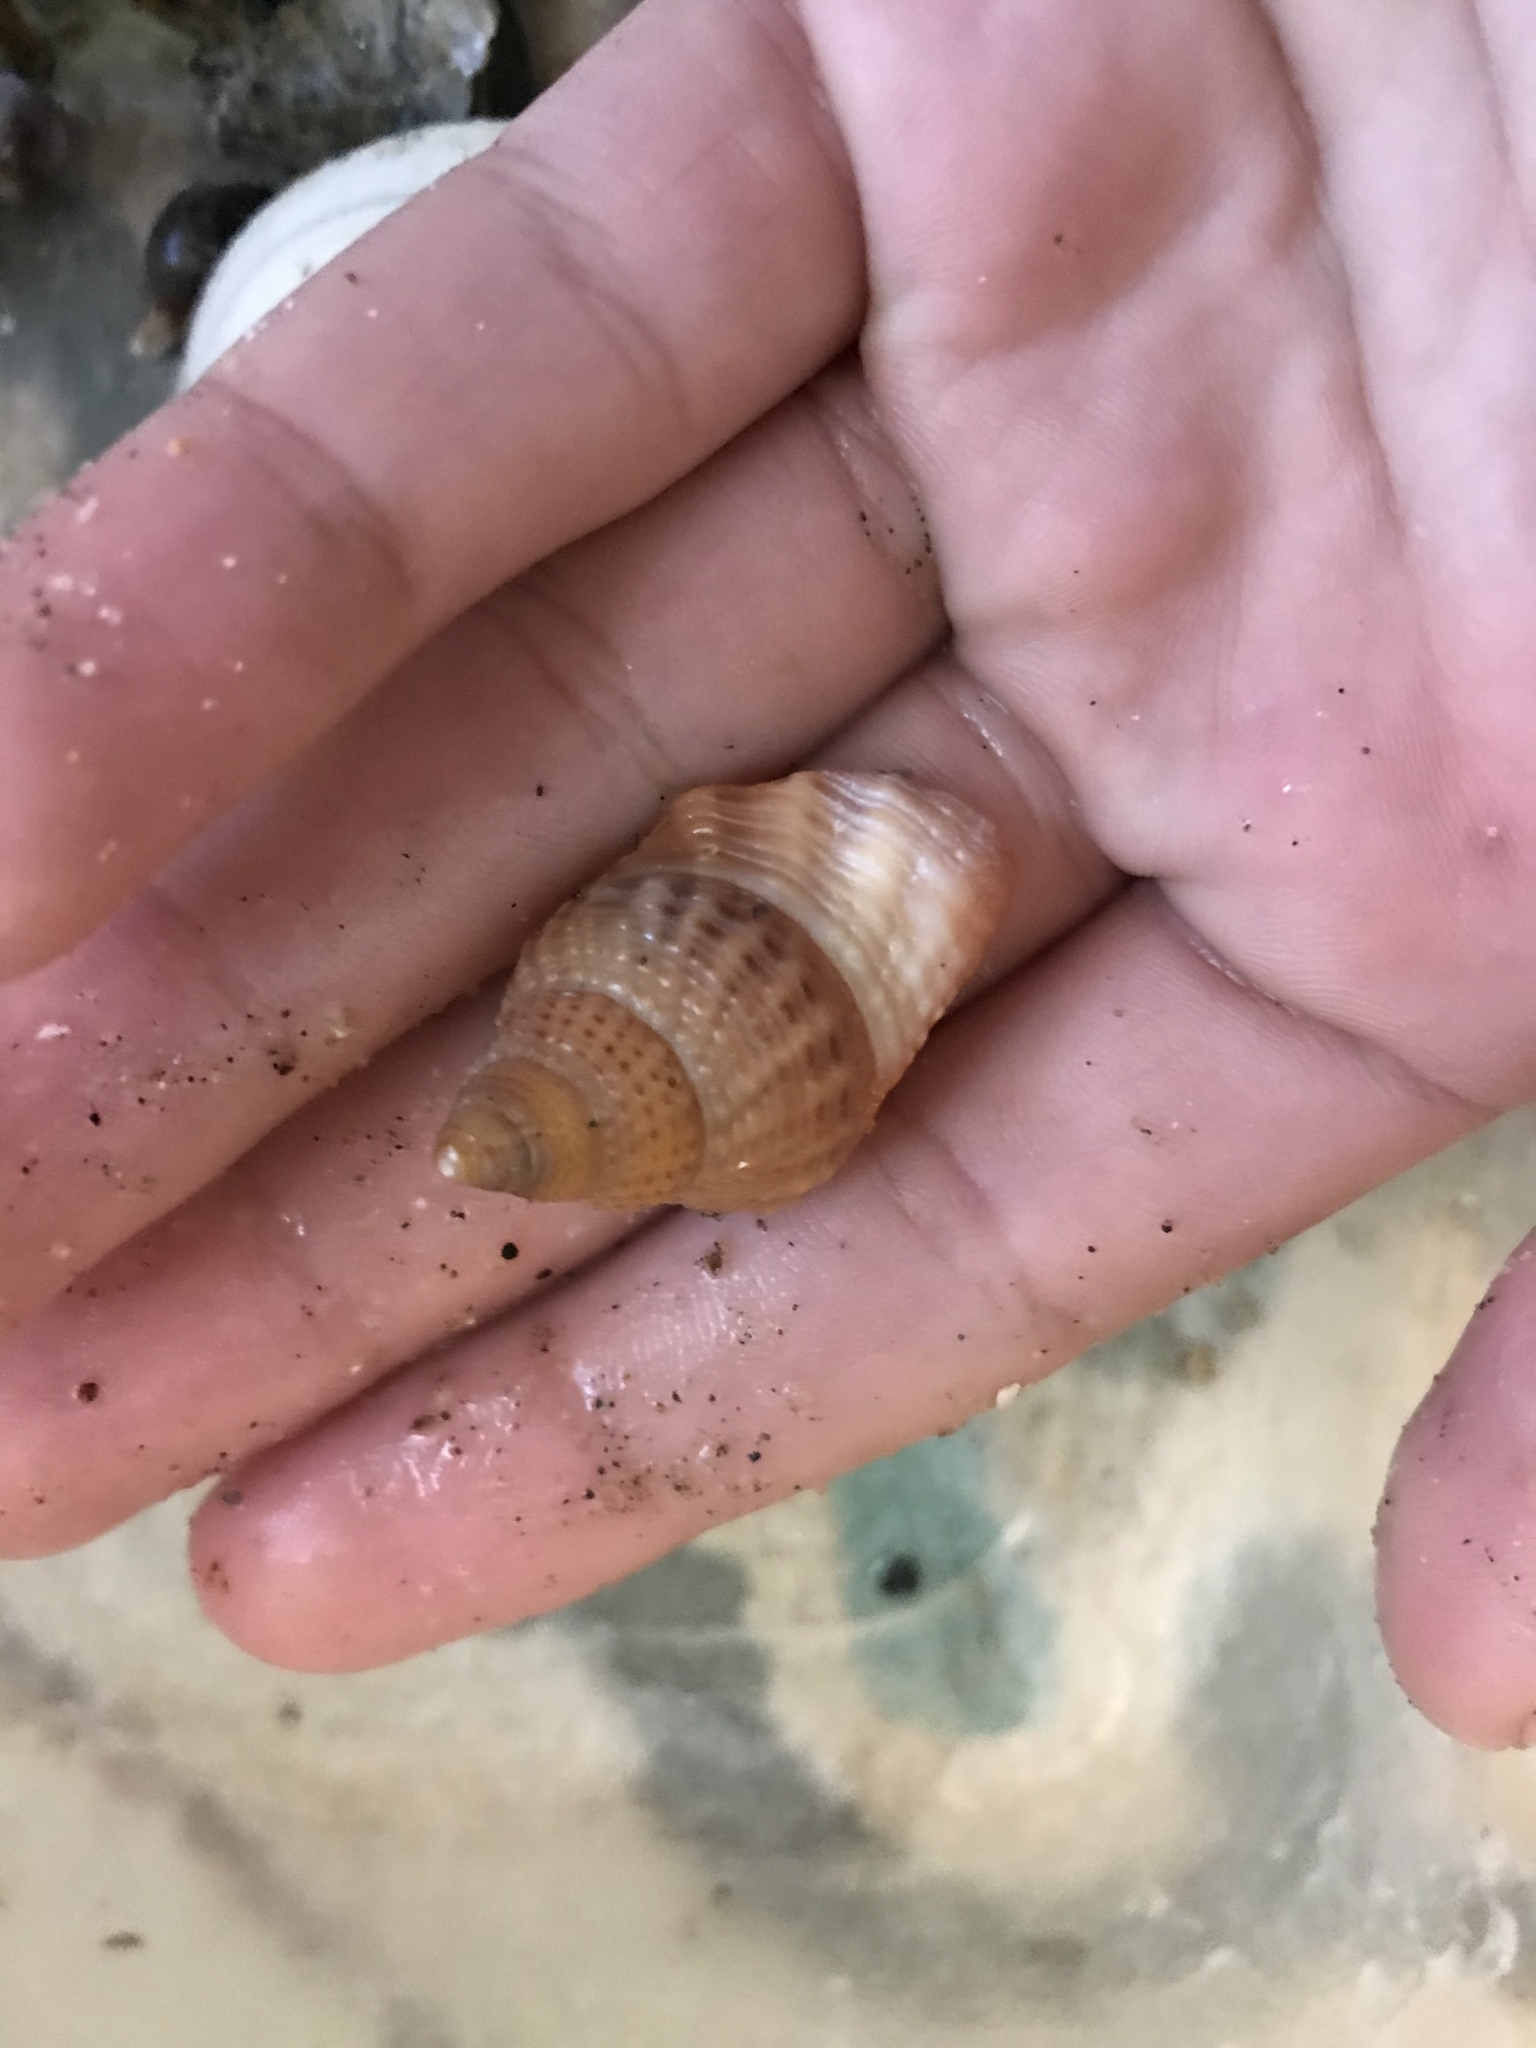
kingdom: Animalia
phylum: Mollusca
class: Gastropoda
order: Neogastropoda
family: Nassariidae
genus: Caesia
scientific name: Caesia fossata
